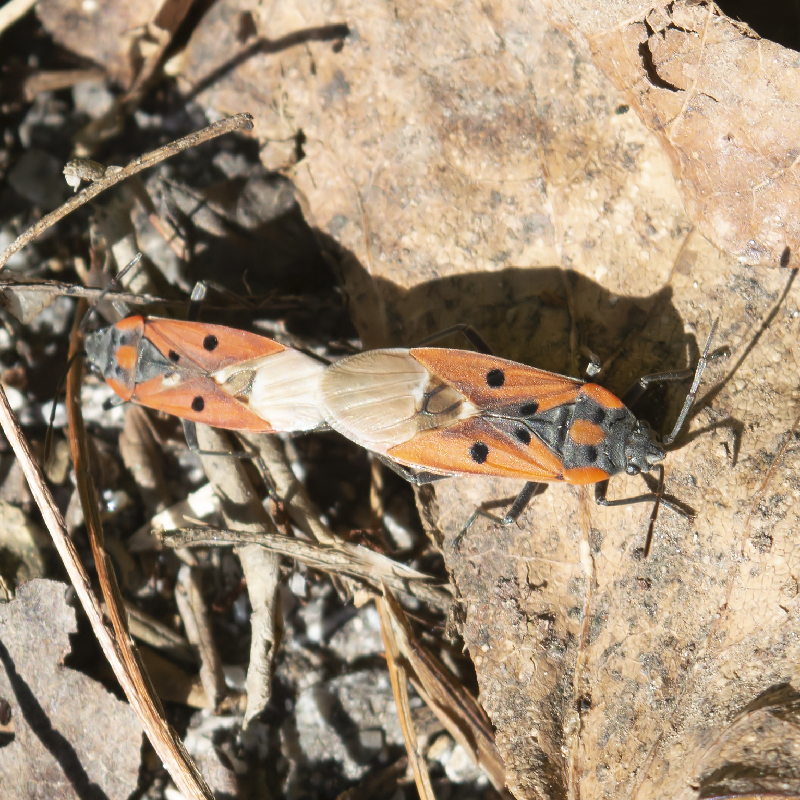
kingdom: Animalia
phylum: Arthropoda
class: Insecta
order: Hemiptera
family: Lygaeidae
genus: Lygaeus
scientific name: Lygaeus creticus
